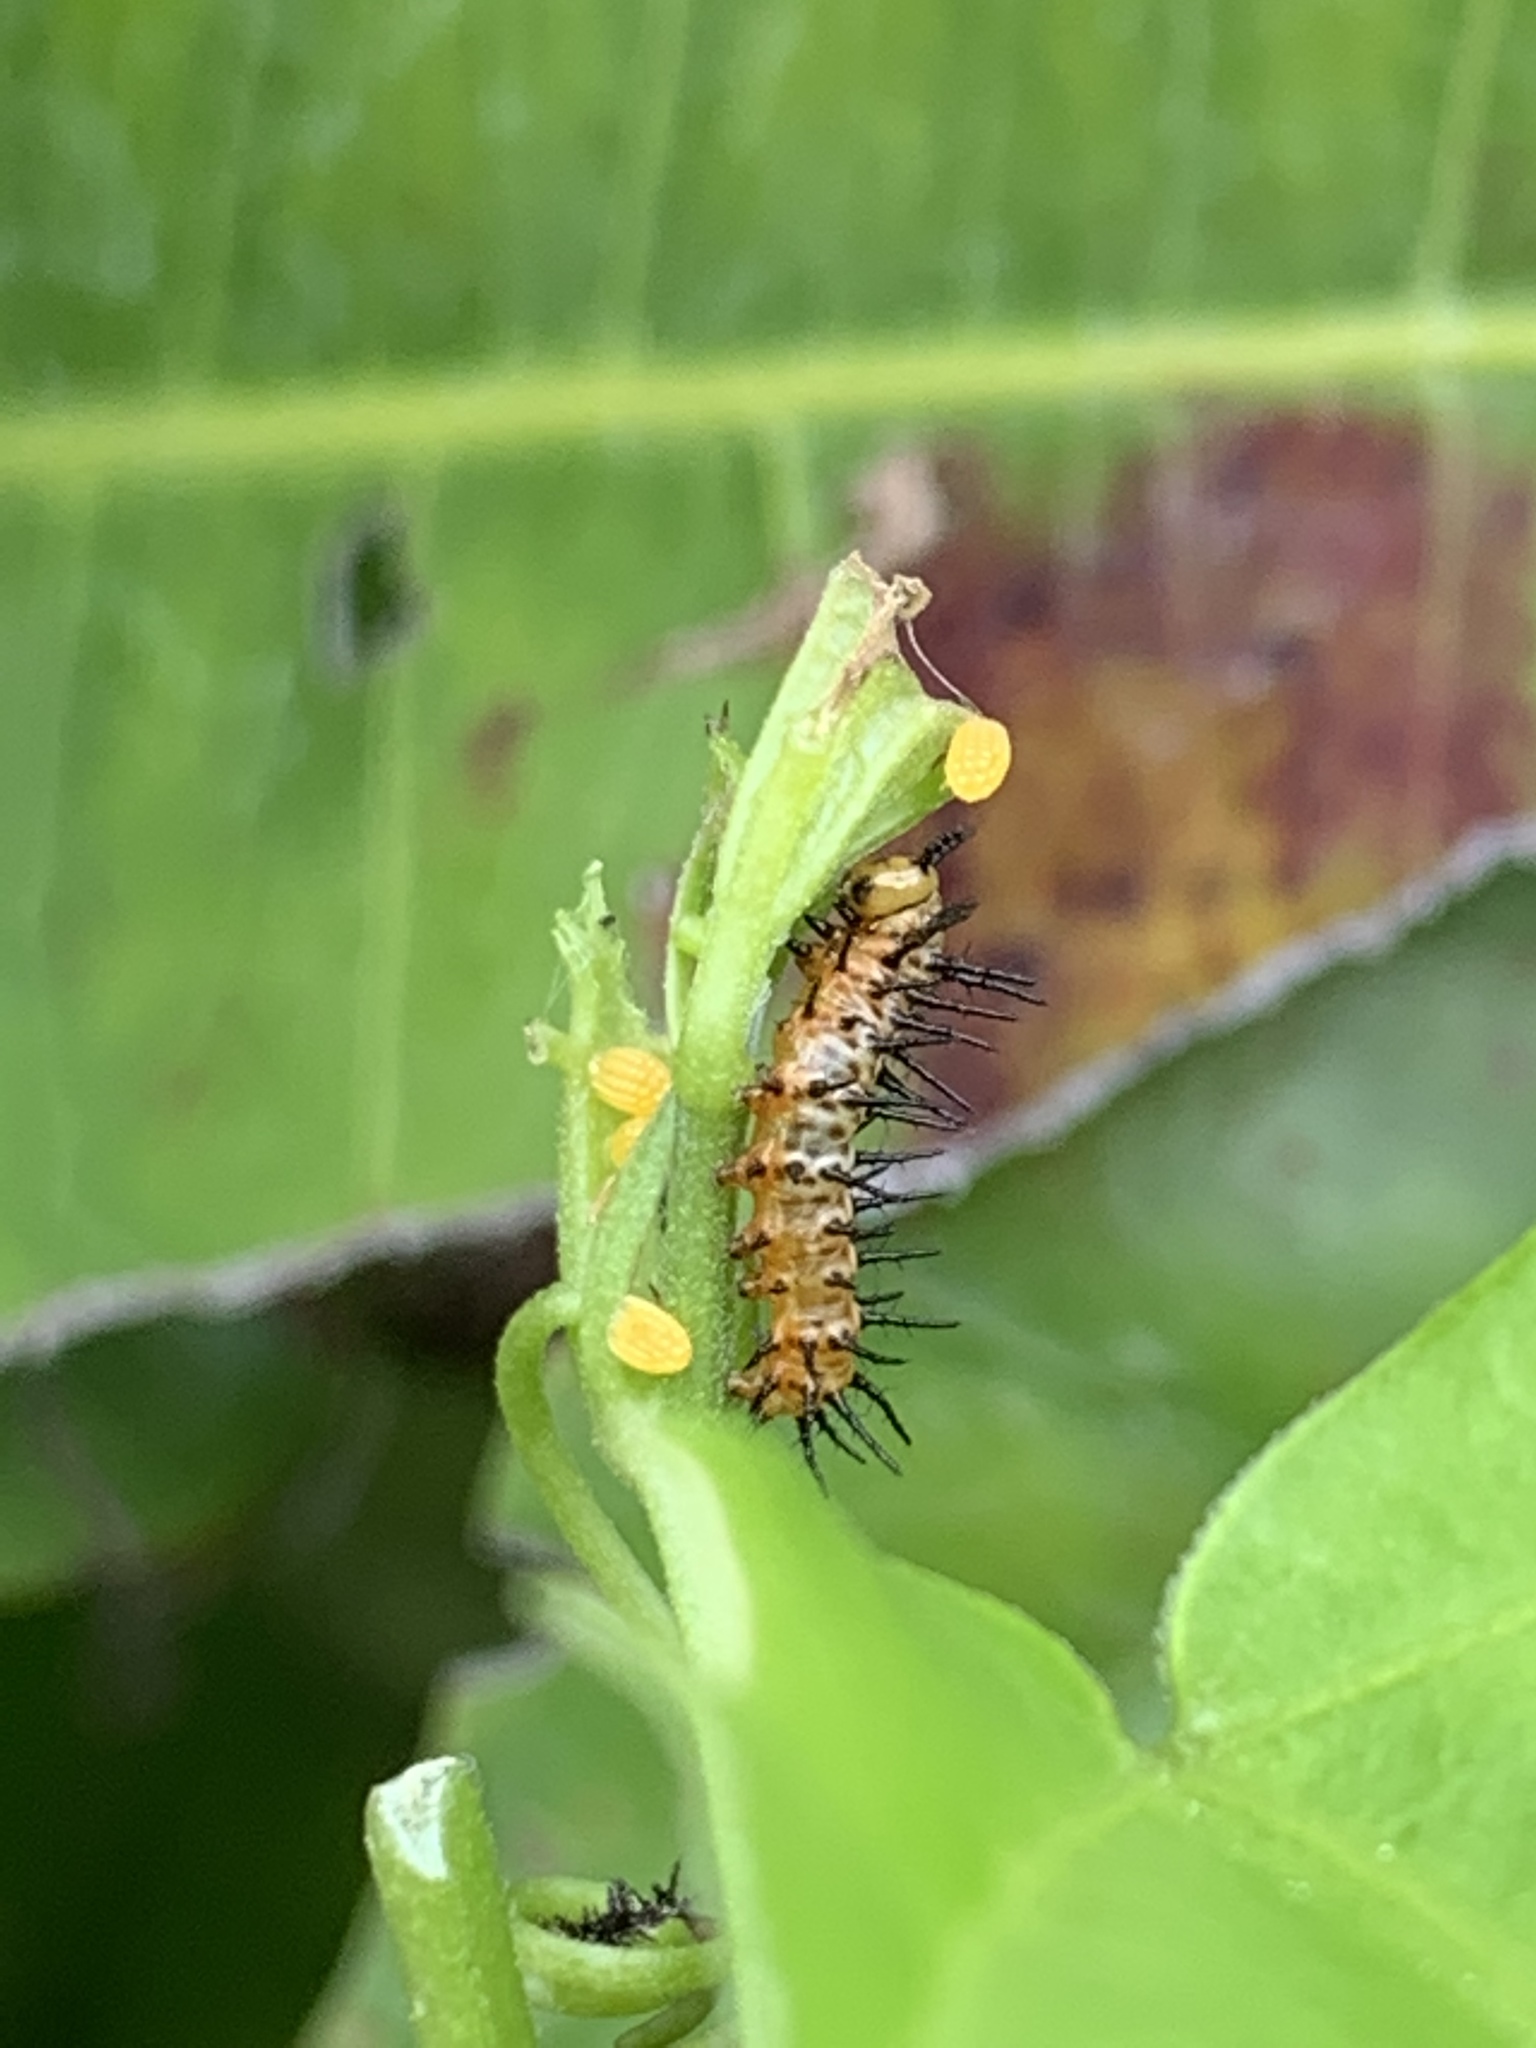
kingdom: Animalia
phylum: Arthropoda
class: Insecta
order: Lepidoptera
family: Nymphalidae
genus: Heliconius
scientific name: Heliconius charithonia
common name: Zebra long wing
